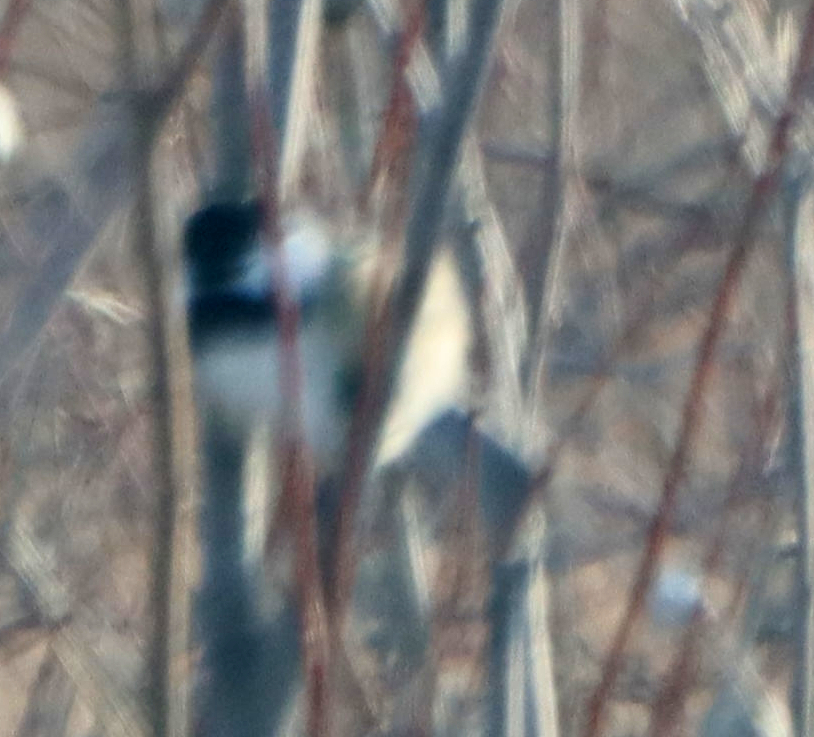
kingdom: Animalia
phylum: Chordata
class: Aves
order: Passeriformes
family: Paridae
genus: Poecile
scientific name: Poecile atricapillus
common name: Black-capped chickadee
